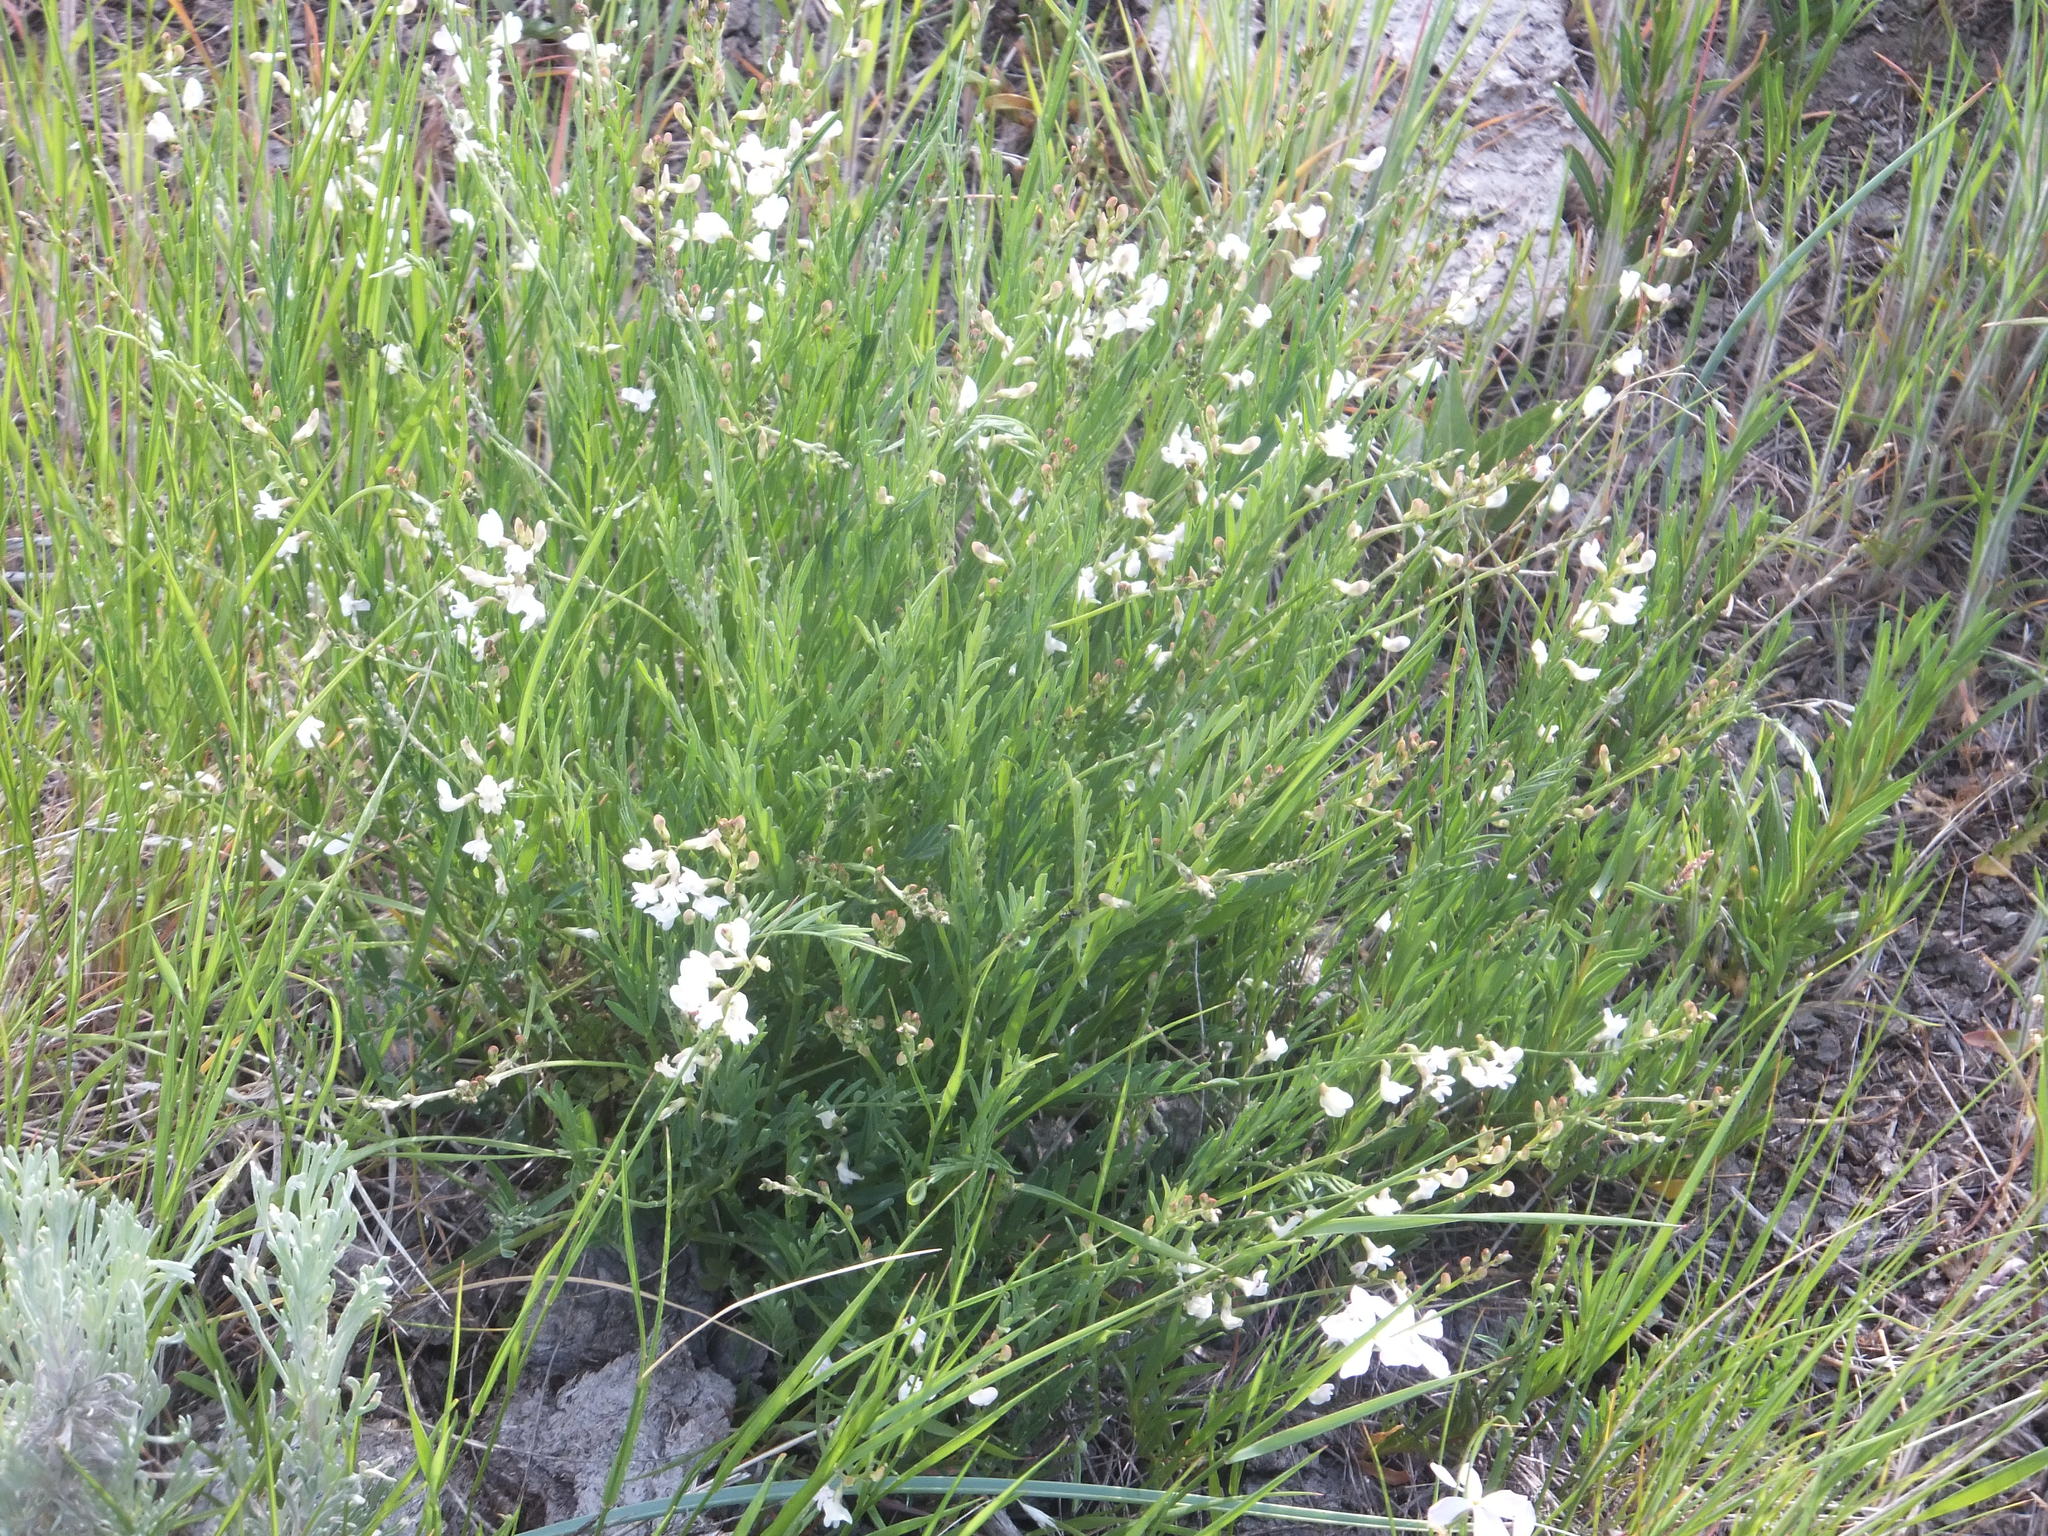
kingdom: Plantae
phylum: Tracheophyta
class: Magnoliopsida
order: Fabales
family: Fabaceae
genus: Astragalus
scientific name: Astragalus miser
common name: Timber milkvetch
